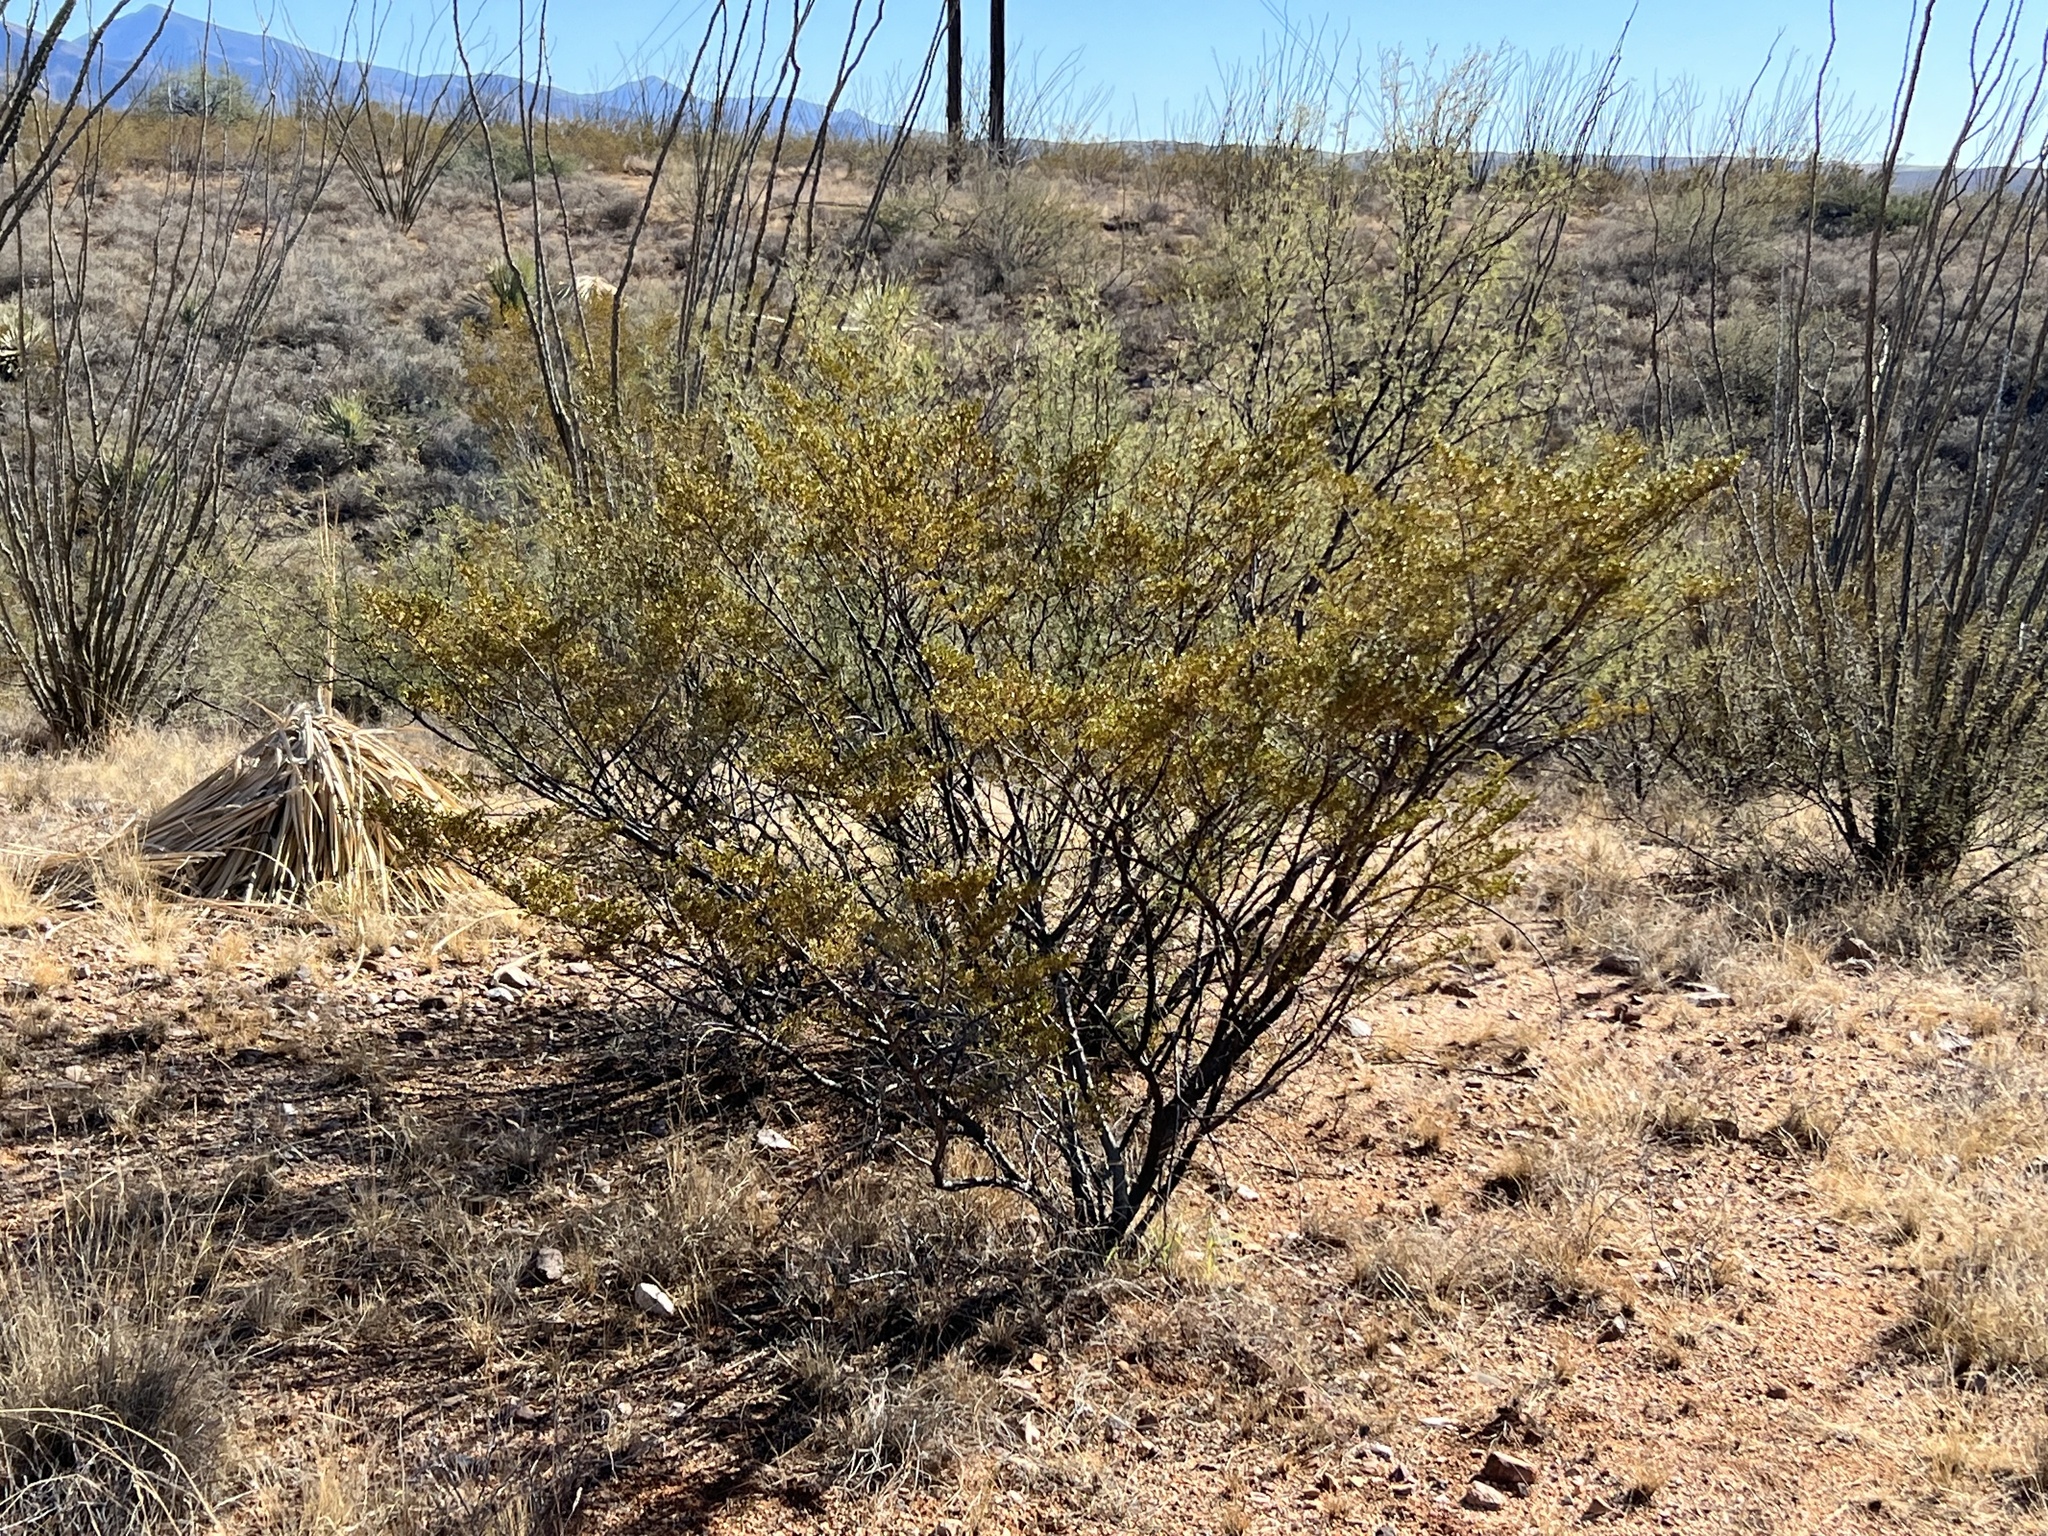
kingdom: Plantae
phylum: Tracheophyta
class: Magnoliopsida
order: Zygophyllales
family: Zygophyllaceae
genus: Larrea
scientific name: Larrea tridentata
